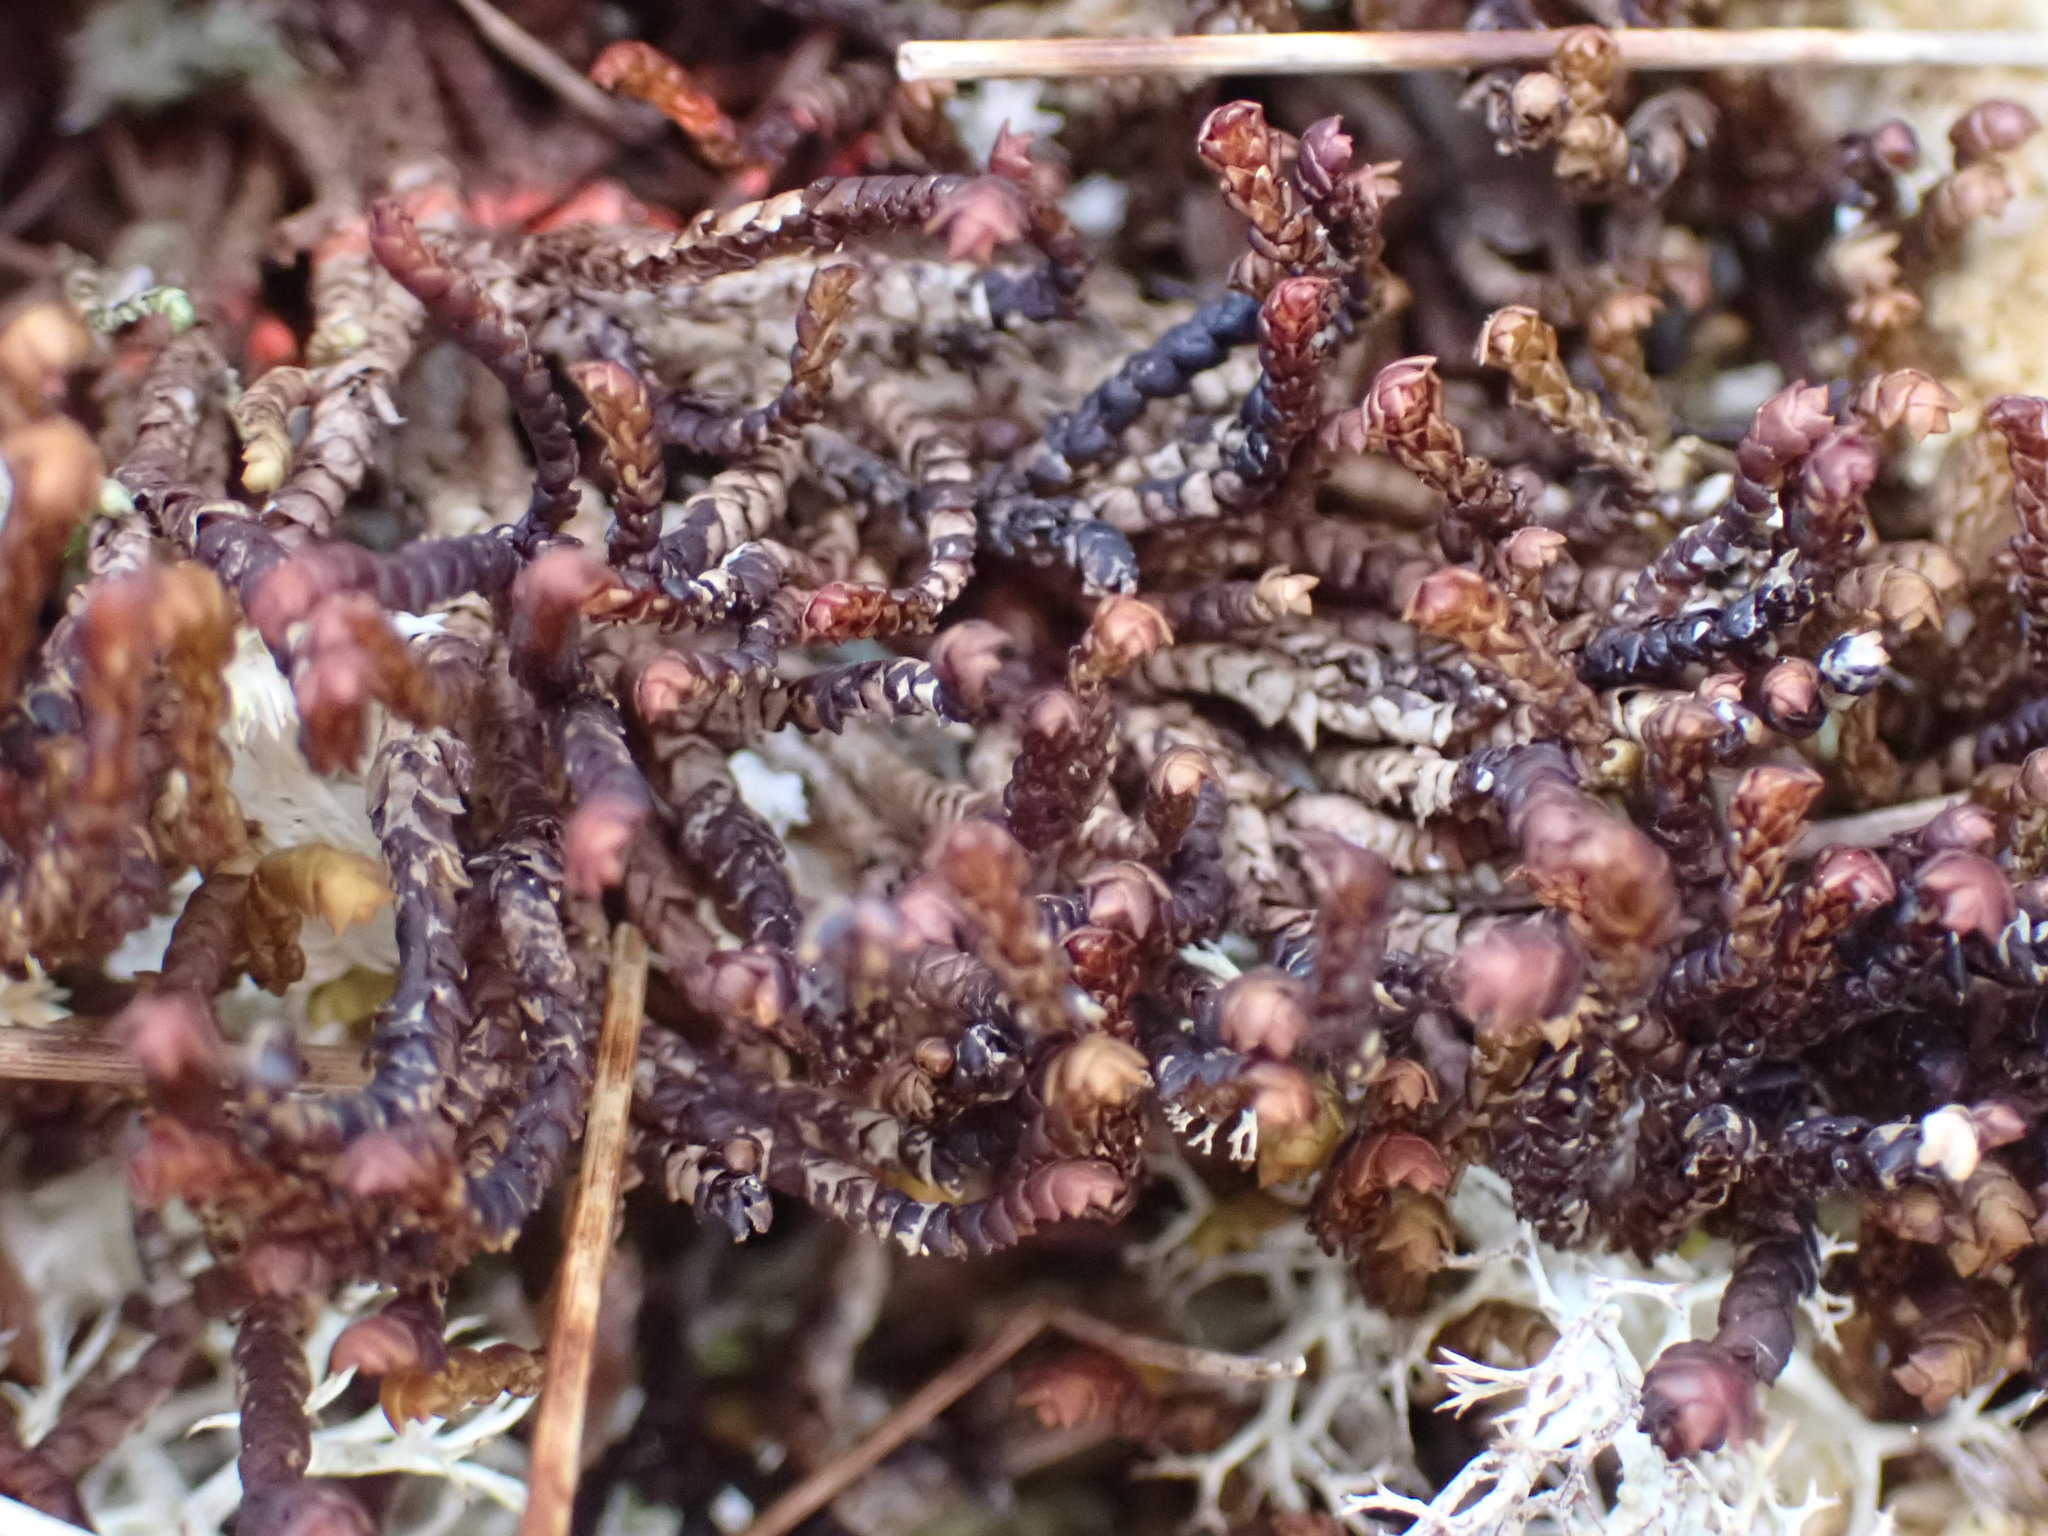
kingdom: Plantae
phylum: Marchantiophyta
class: Jungermanniopsida
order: Pleuroziales
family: Pleuroziaceae
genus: Pleurozia
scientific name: Pleurozia purpurea
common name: Purple spoonwort
